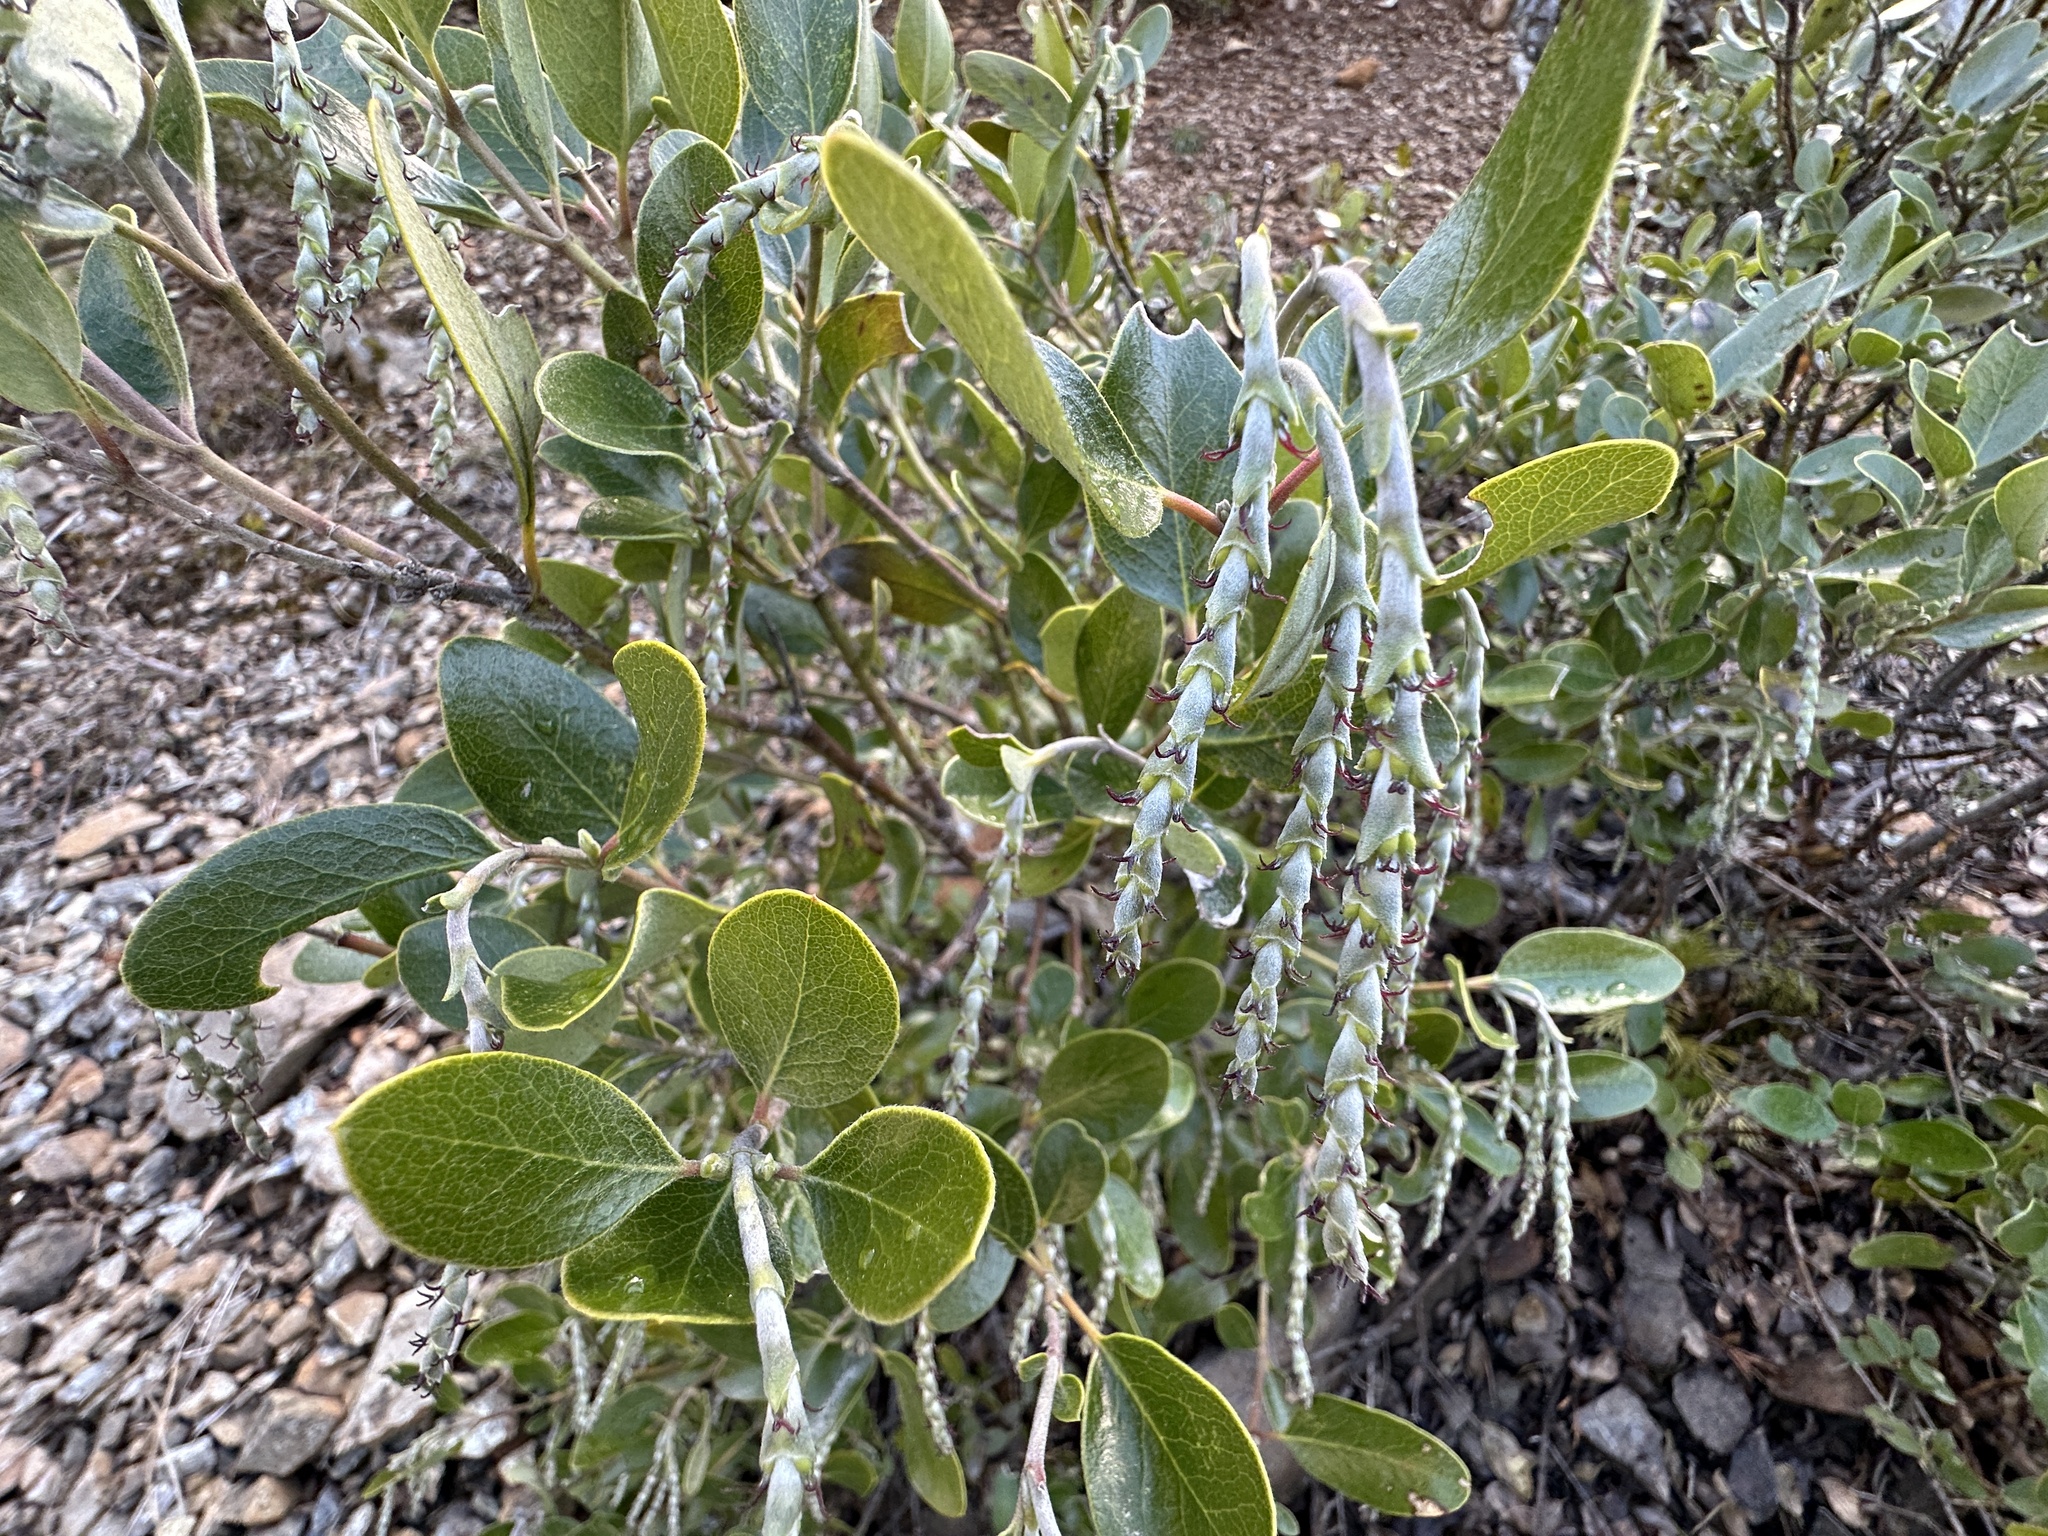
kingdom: Plantae
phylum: Tracheophyta
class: Magnoliopsida
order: Garryales
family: Garryaceae
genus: Garrya
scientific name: Garrya buxifolia
